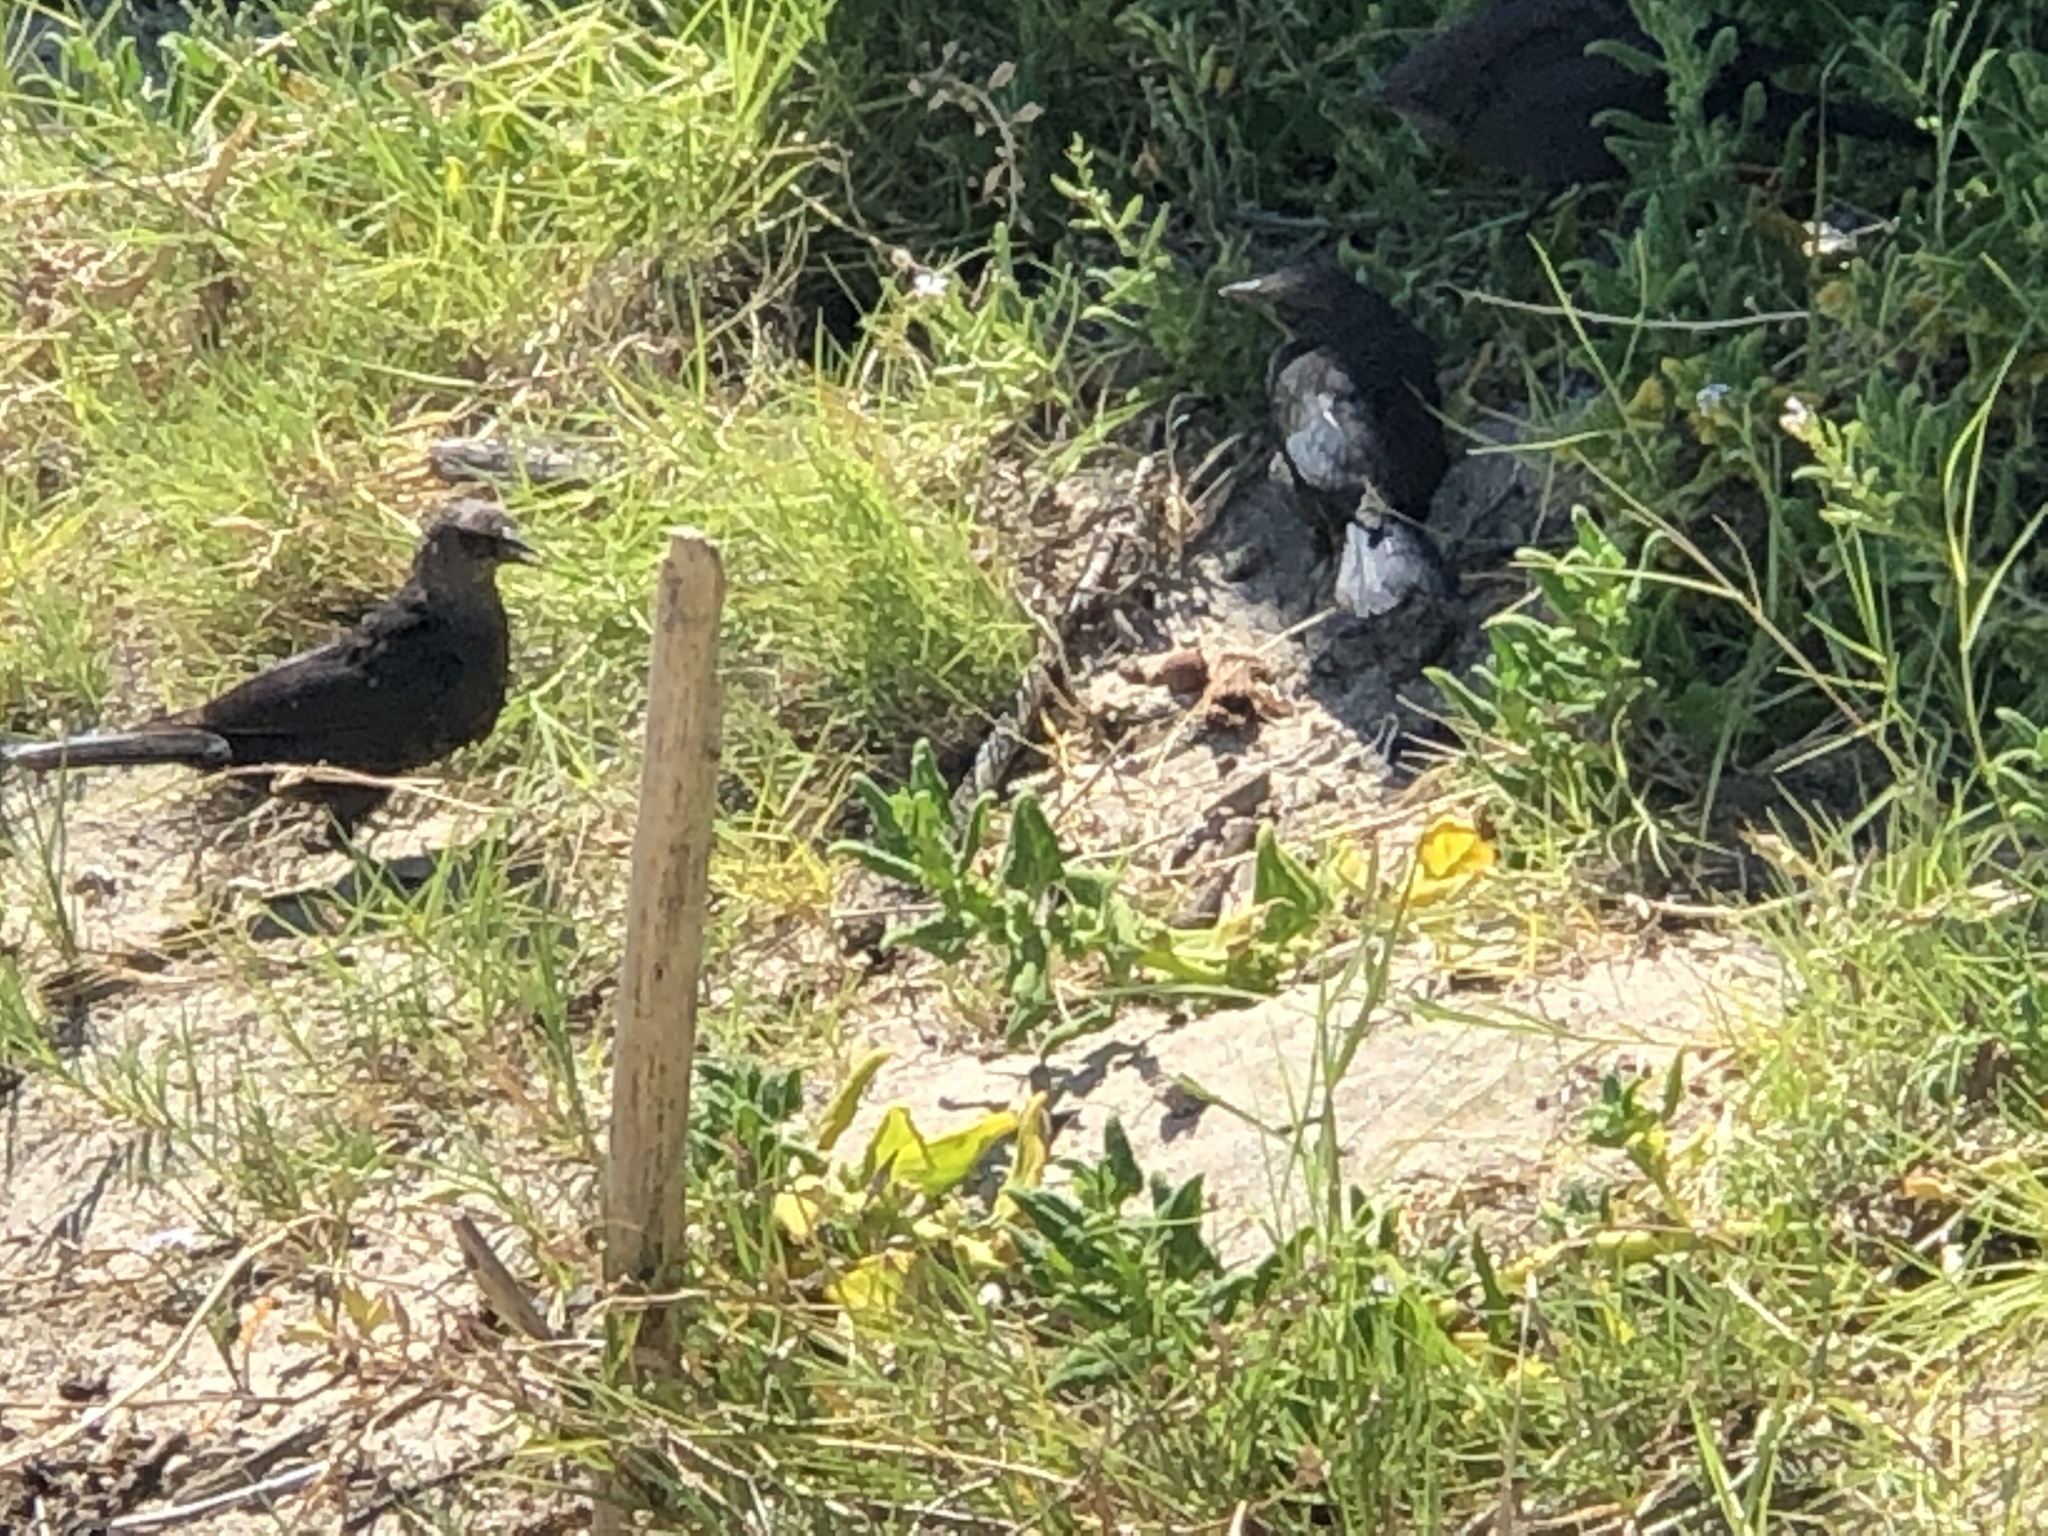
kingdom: Animalia
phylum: Chordata
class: Aves
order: Passeriformes
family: Icteridae
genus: Euphagus
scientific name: Euphagus cyanocephalus
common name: Brewer's blackbird
